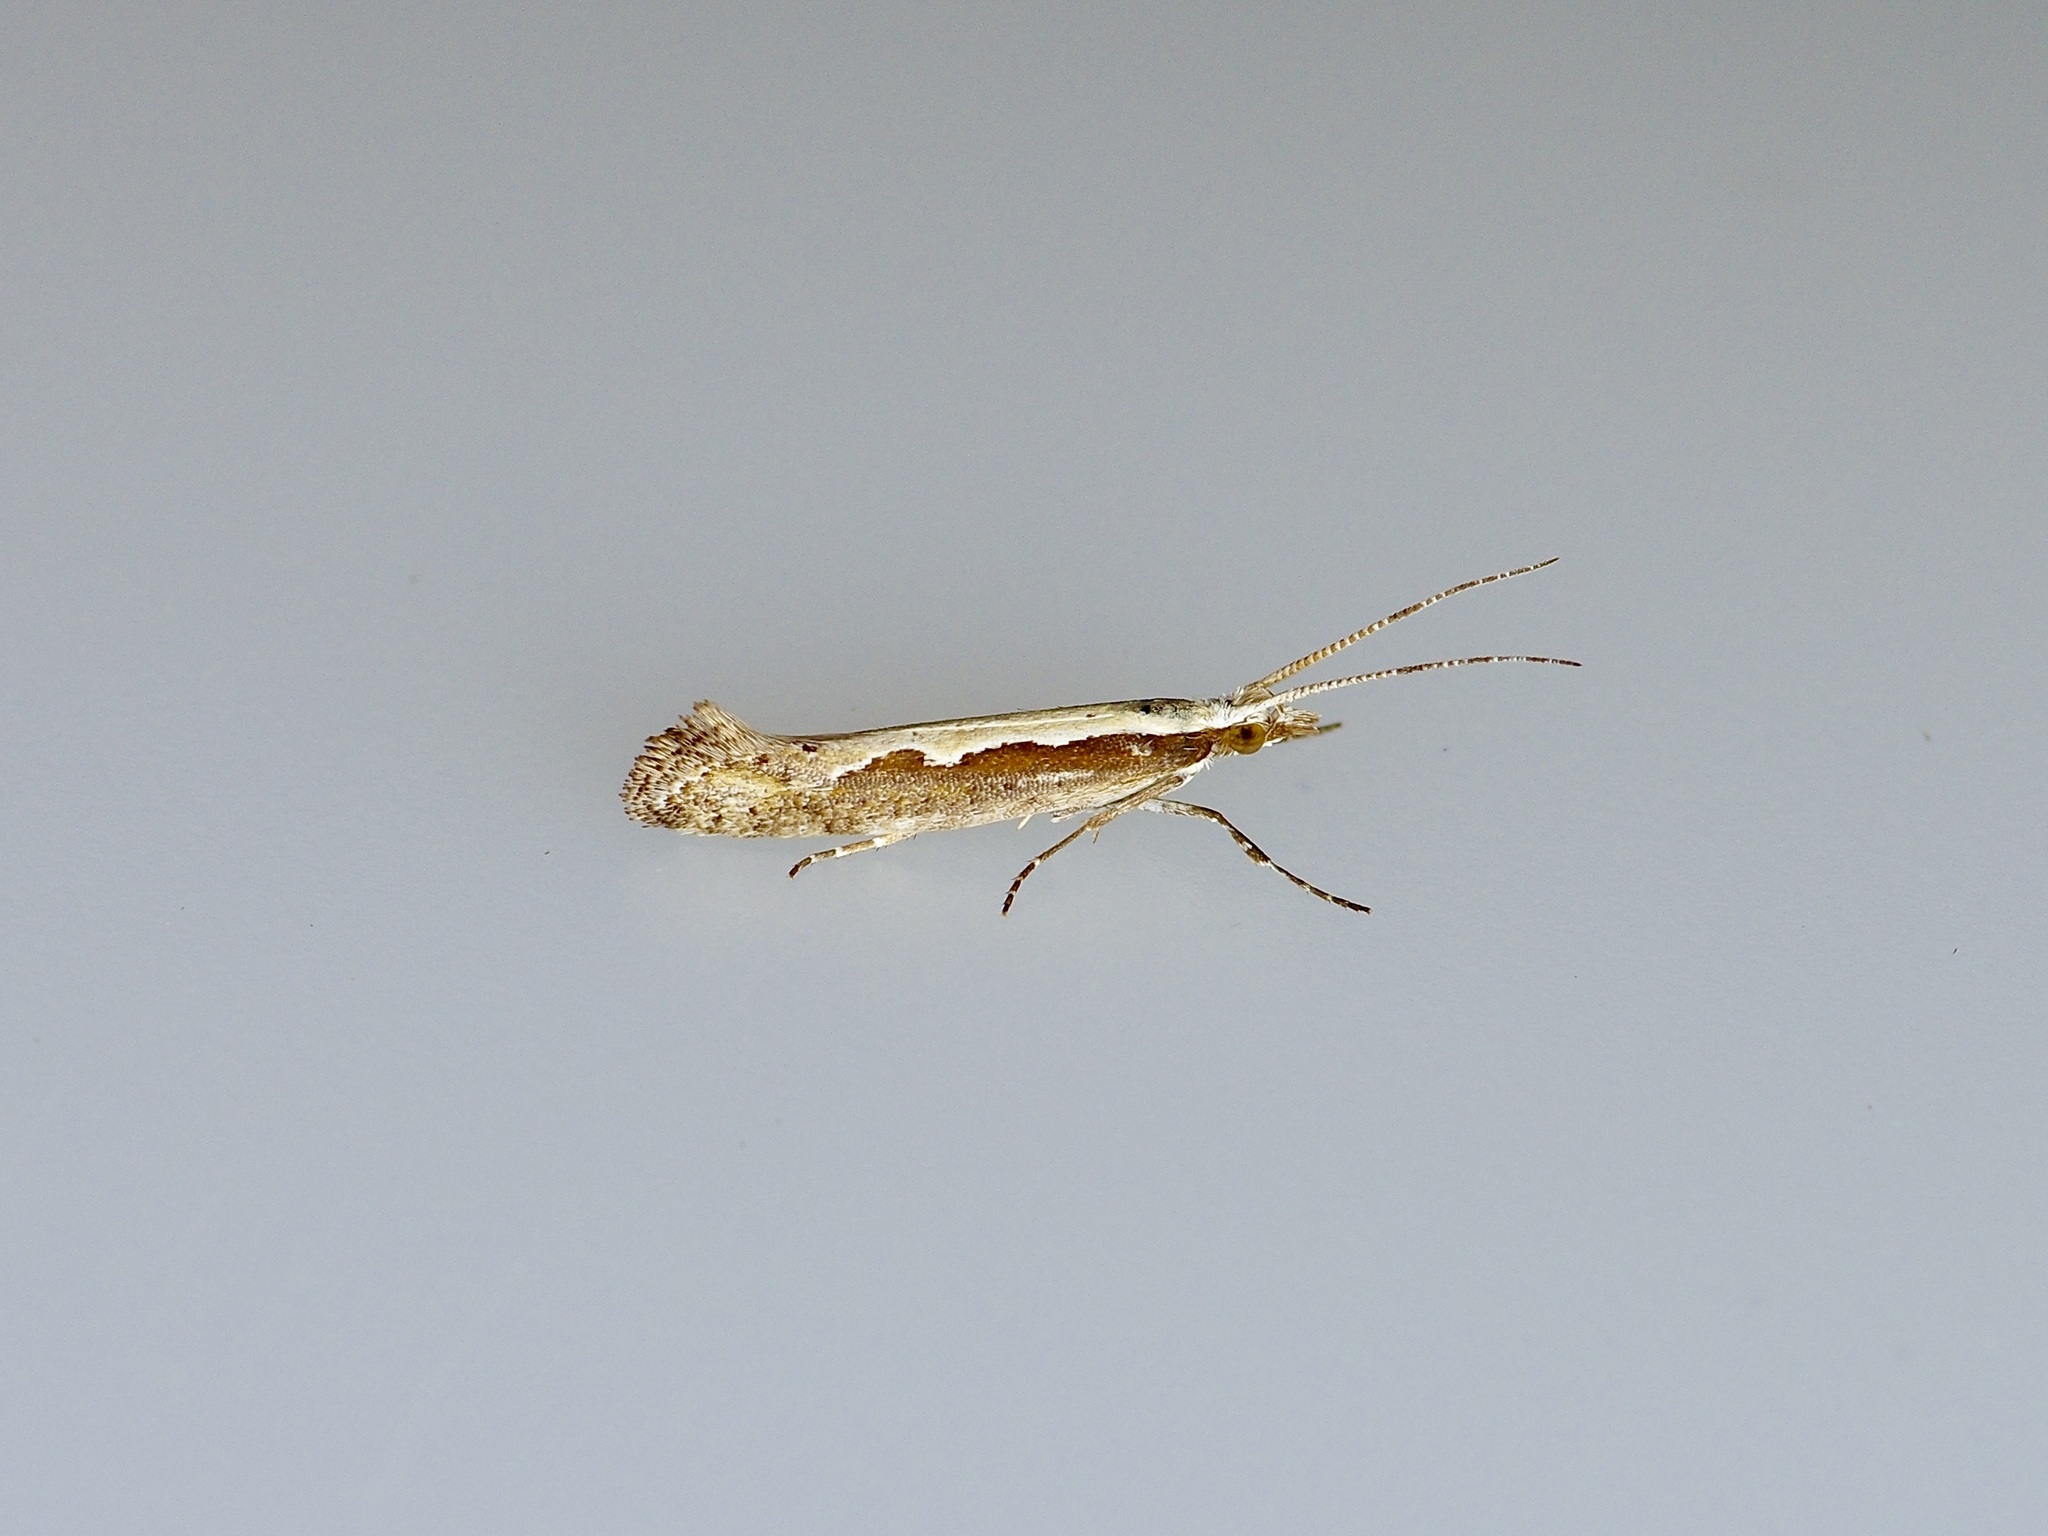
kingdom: Animalia
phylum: Arthropoda
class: Insecta
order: Lepidoptera
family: Plutellidae
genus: Plutella
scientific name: Plutella xylostella
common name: Diamond-back moth
